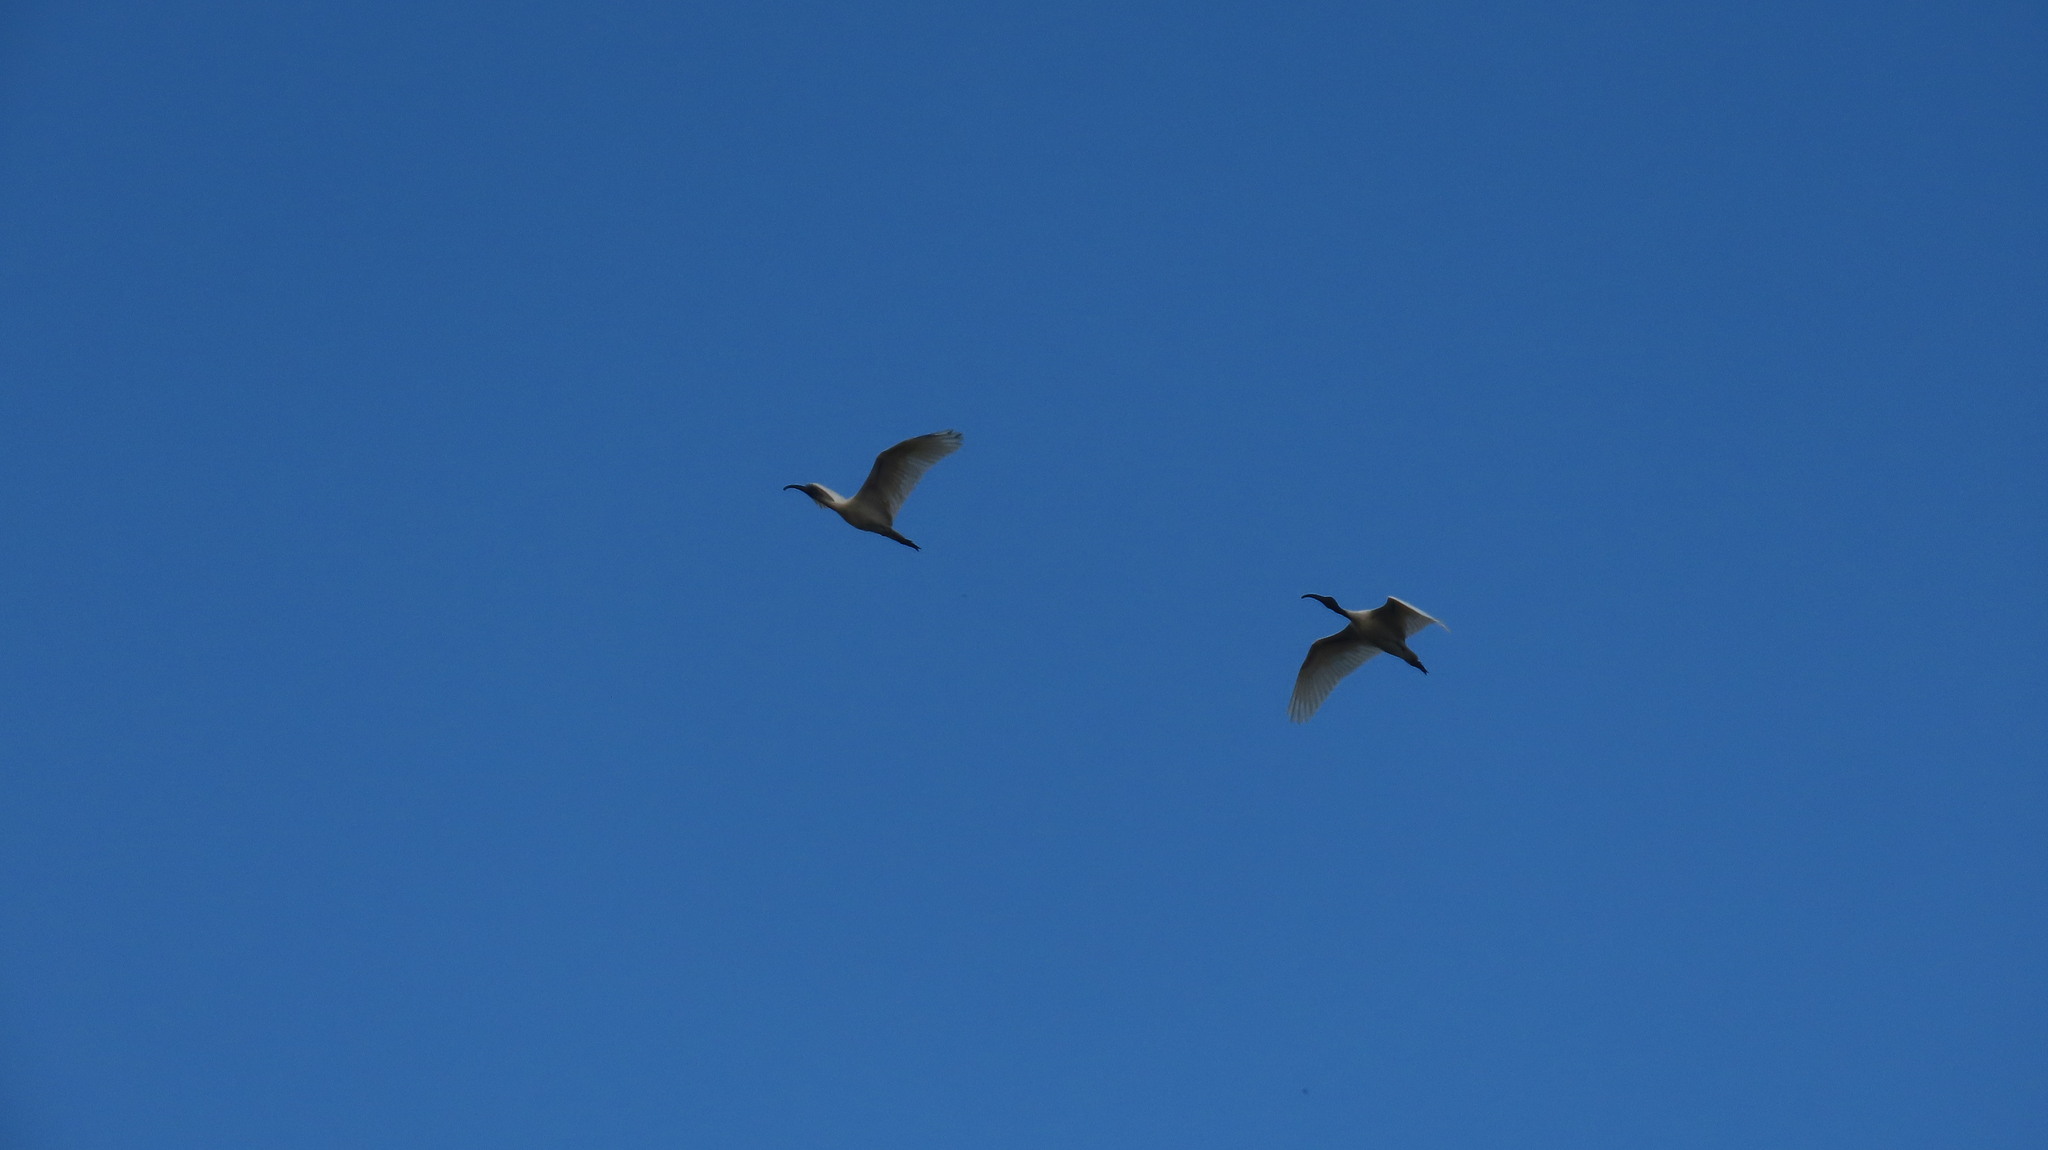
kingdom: Animalia
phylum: Chordata
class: Aves
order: Pelecaniformes
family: Threskiornithidae
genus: Threskiornis
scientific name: Threskiornis melanocephalus
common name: Black-headed ibis
